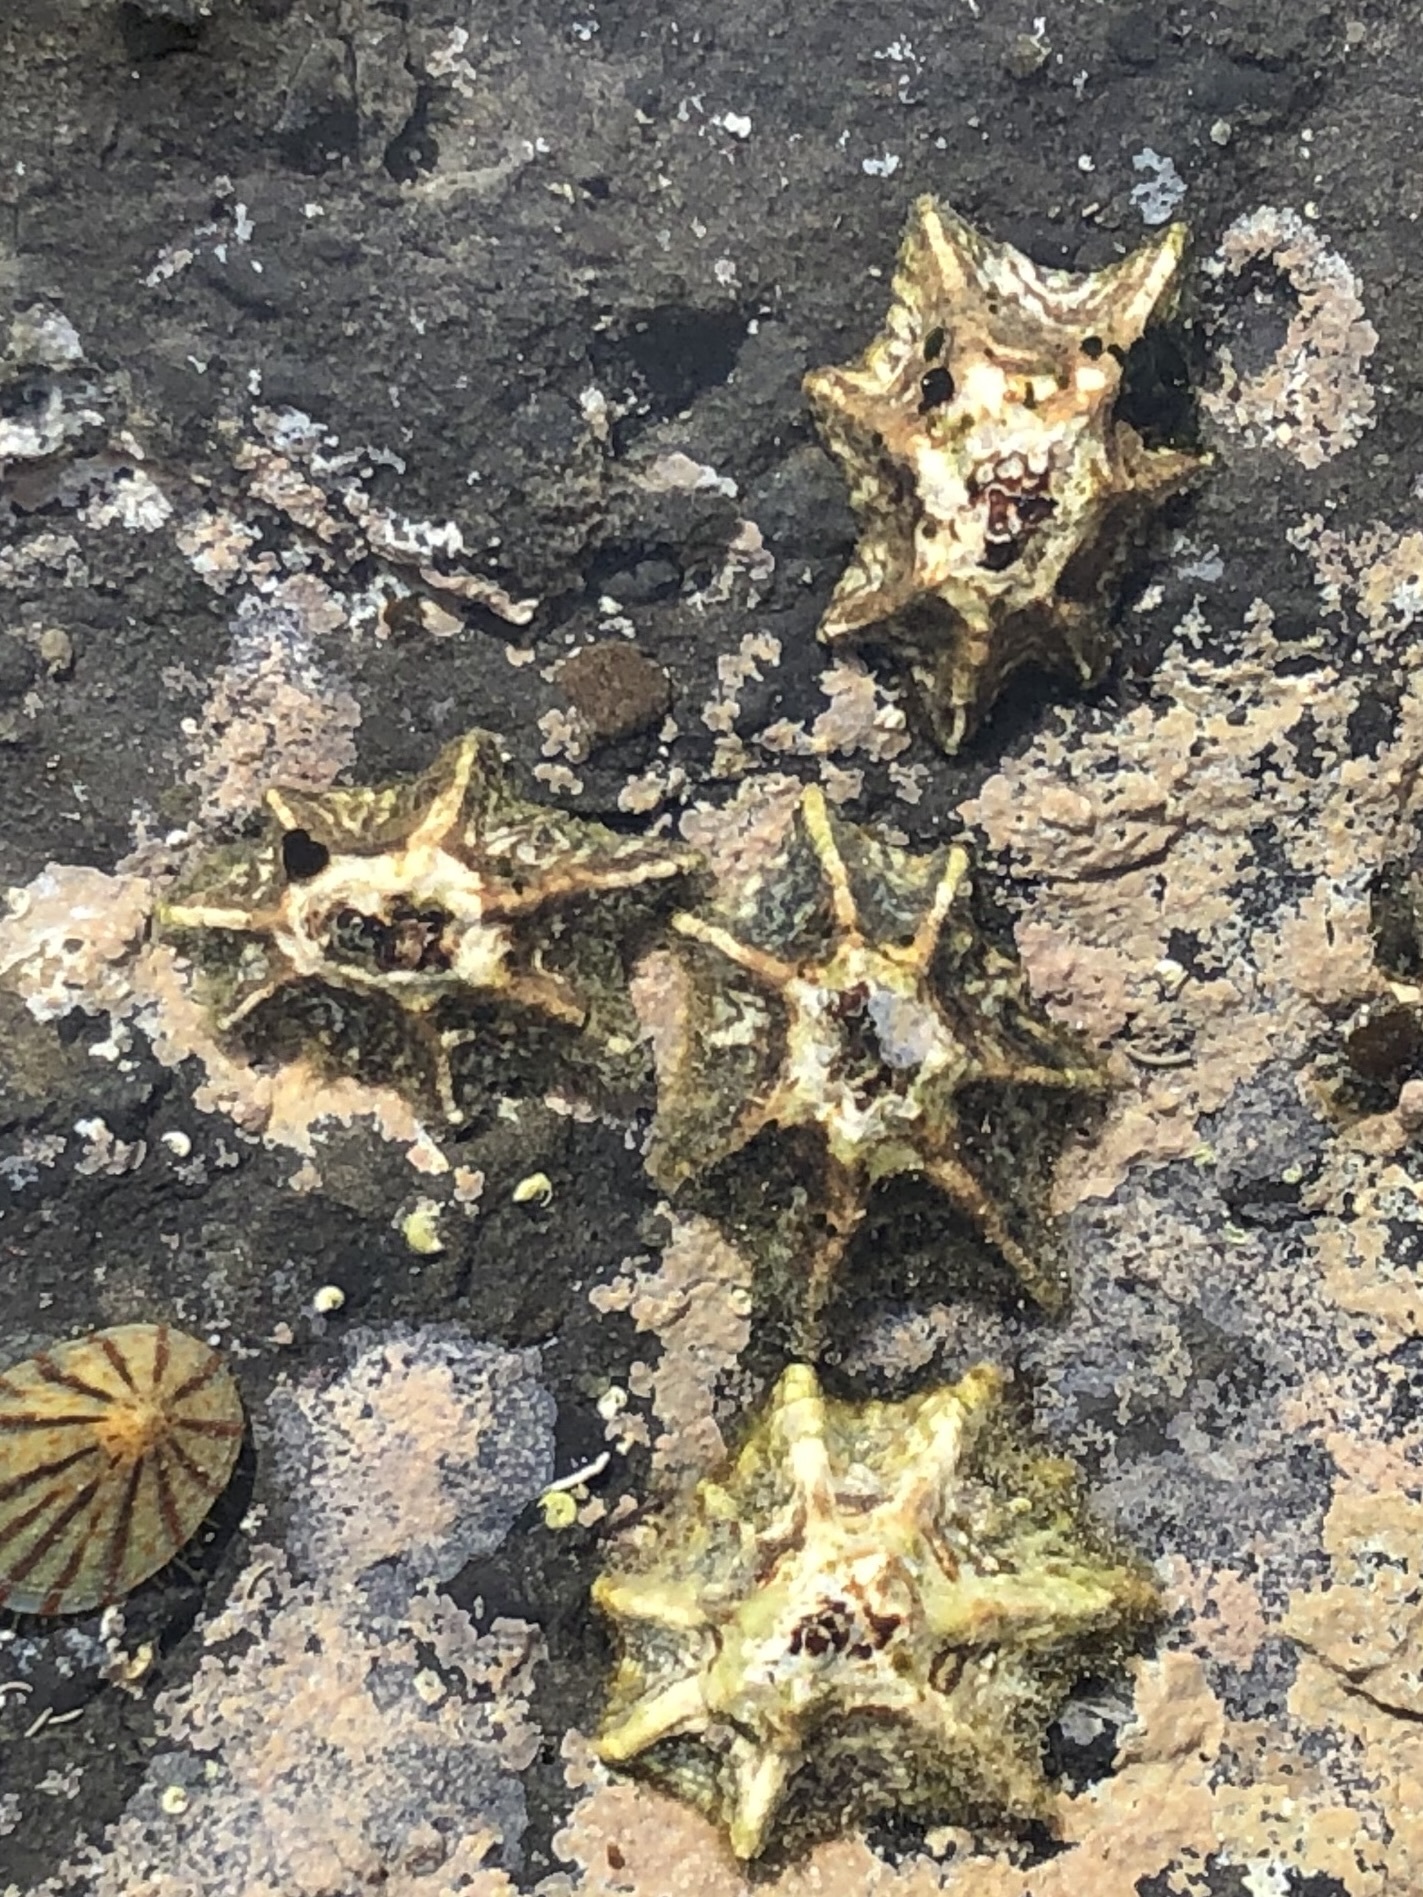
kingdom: Animalia
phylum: Mollusca
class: Gastropoda
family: Lottiidae
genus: Patelloida
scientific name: Patelloida saccharina
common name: Pacific sugar limpet
